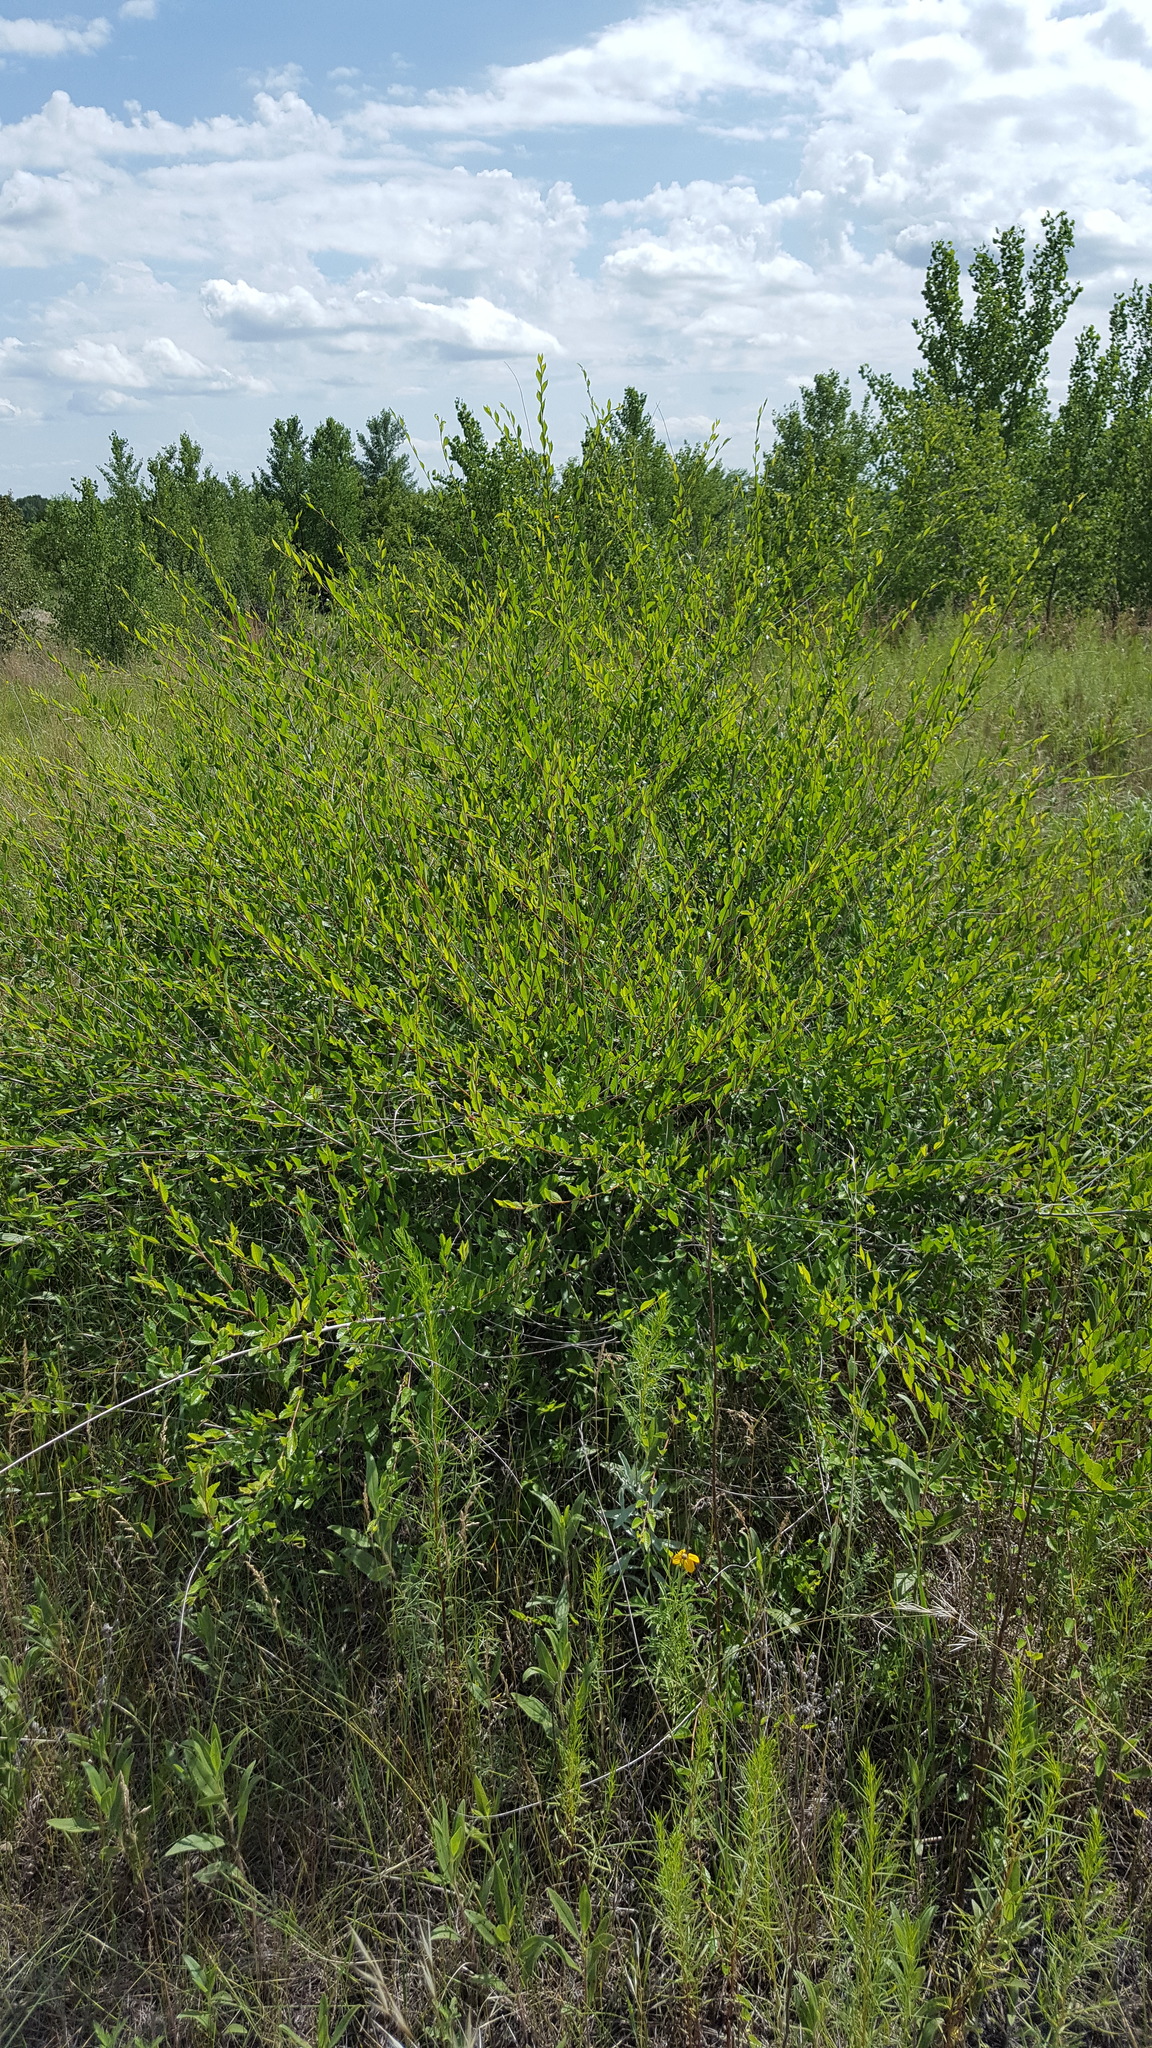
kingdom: Plantae
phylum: Tracheophyta
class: Magnoliopsida
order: Rosales
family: Ulmaceae
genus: Ulmus
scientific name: Ulmus pumila
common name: Siberian elm
